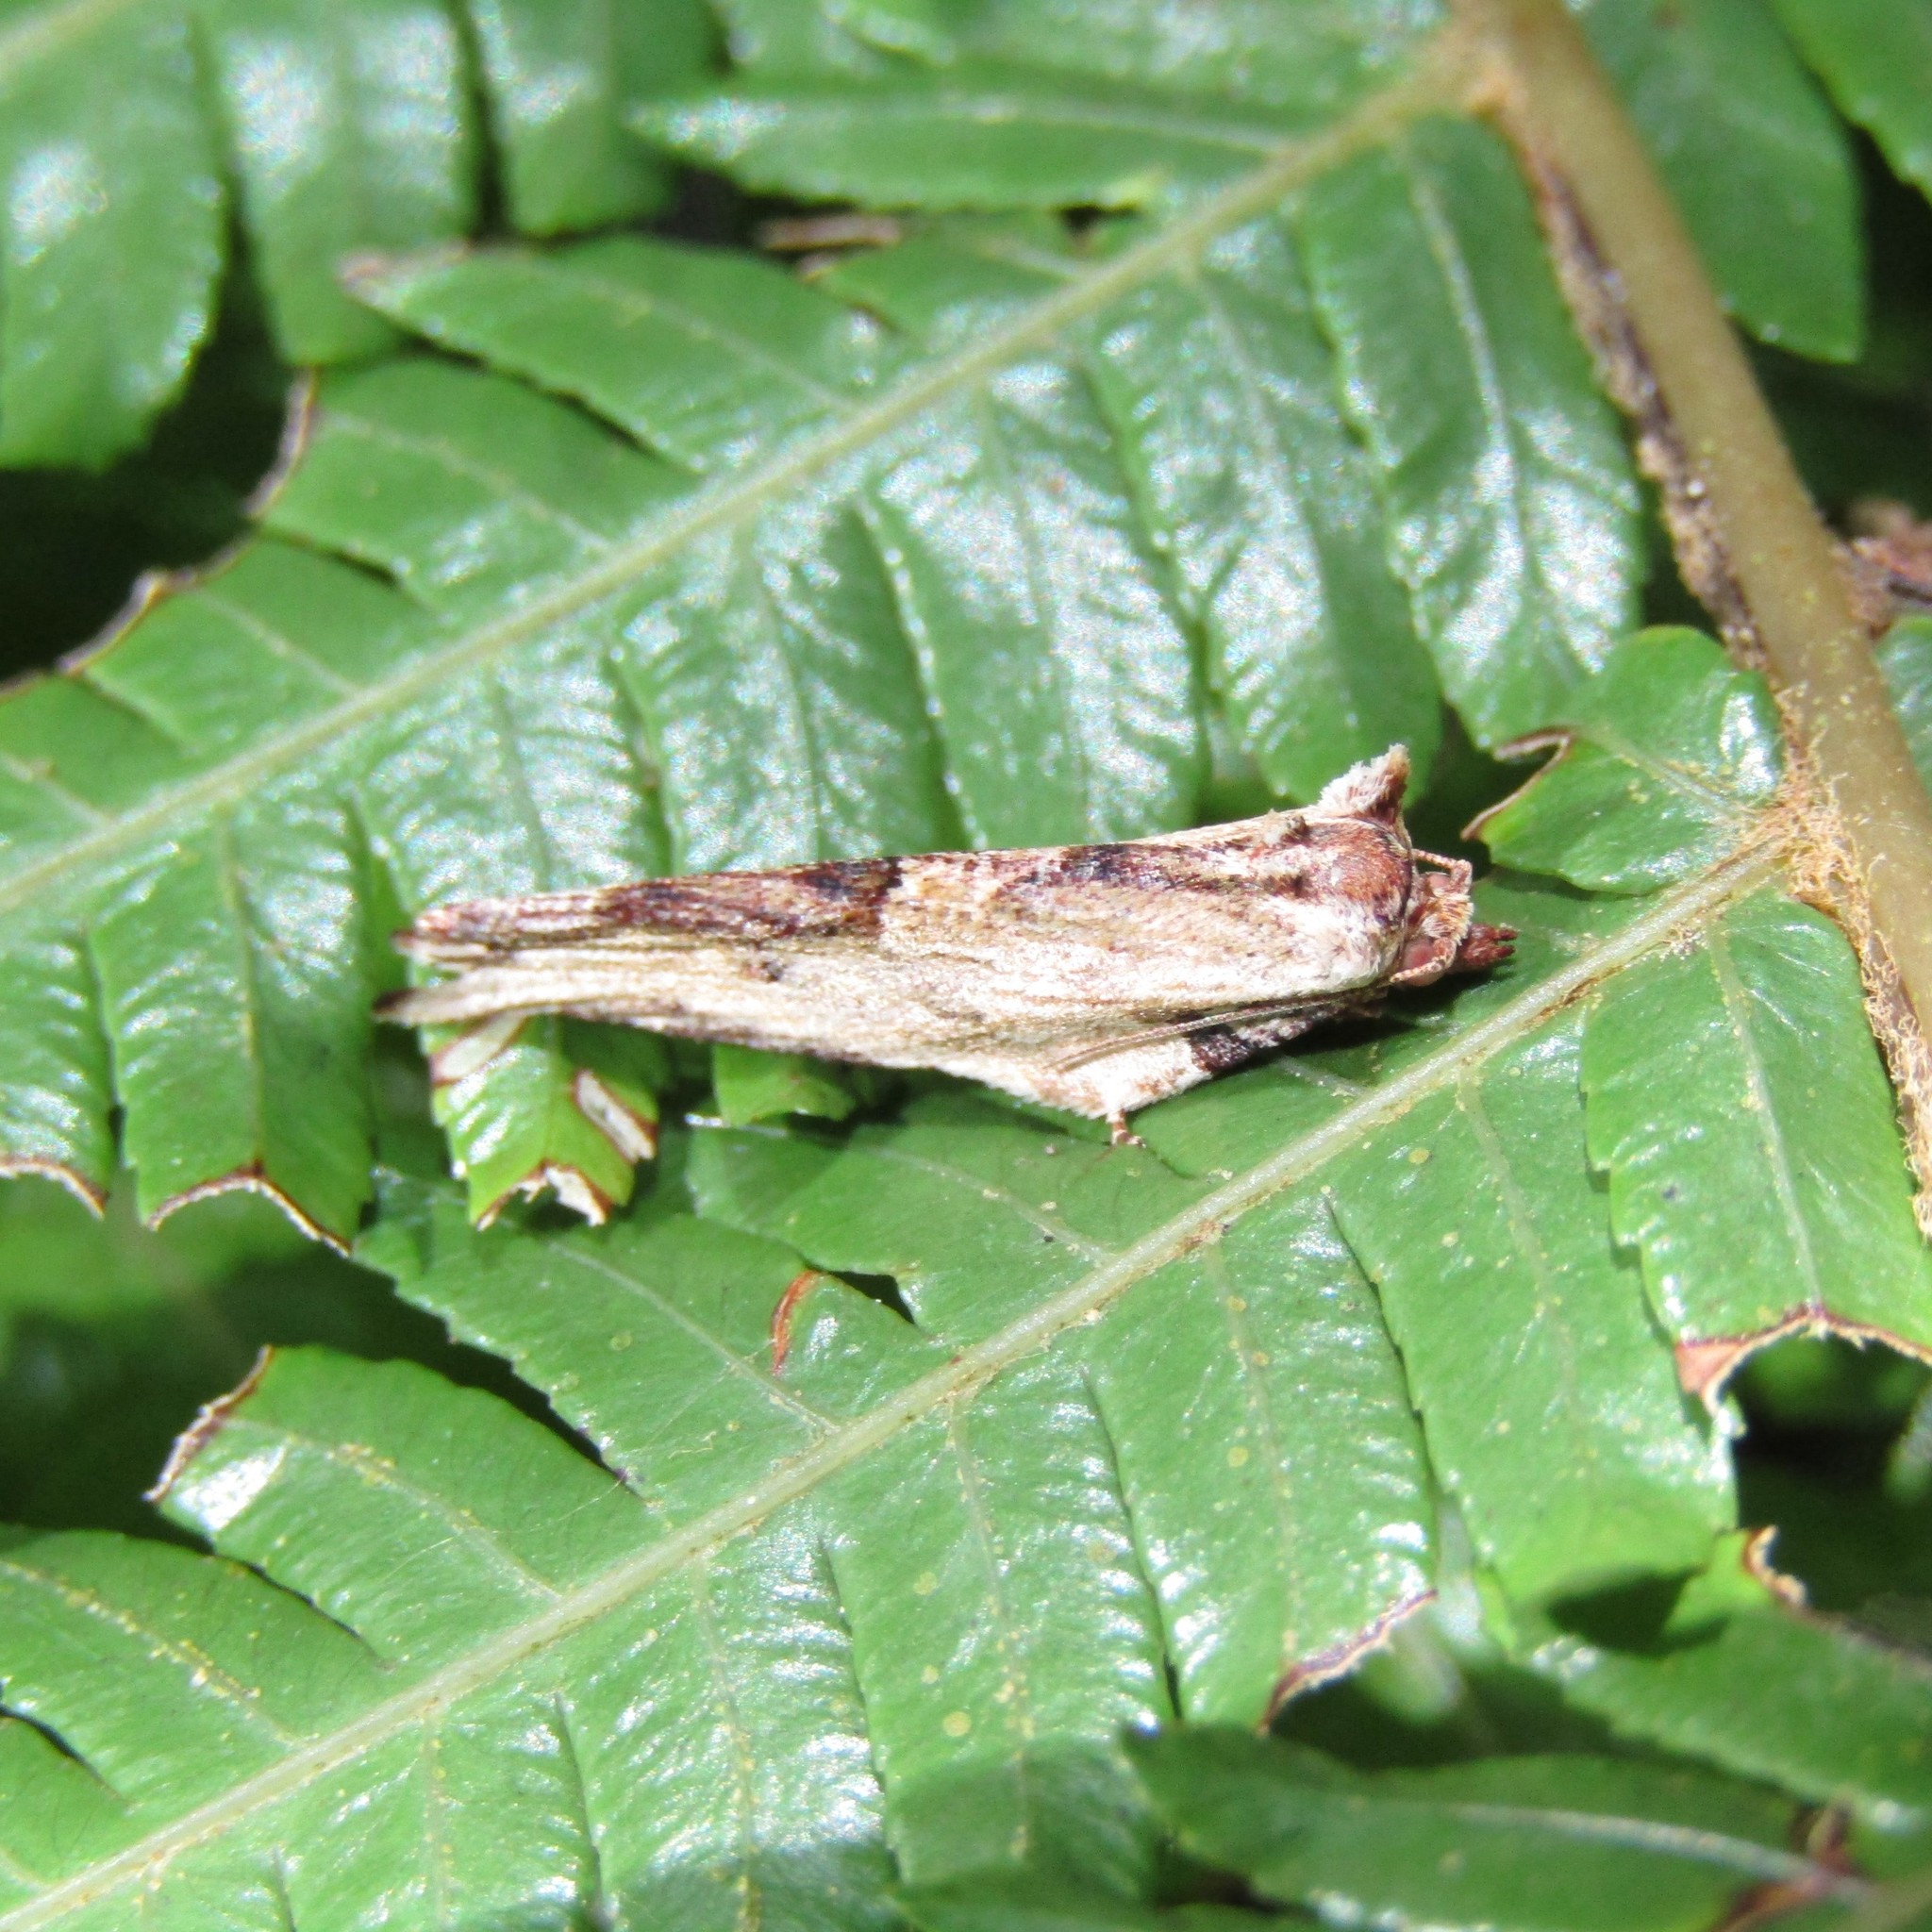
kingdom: Animalia
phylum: Arthropoda
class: Insecta
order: Lepidoptera
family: Tortricidae
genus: Epalxiphora
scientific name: Epalxiphora axenana
